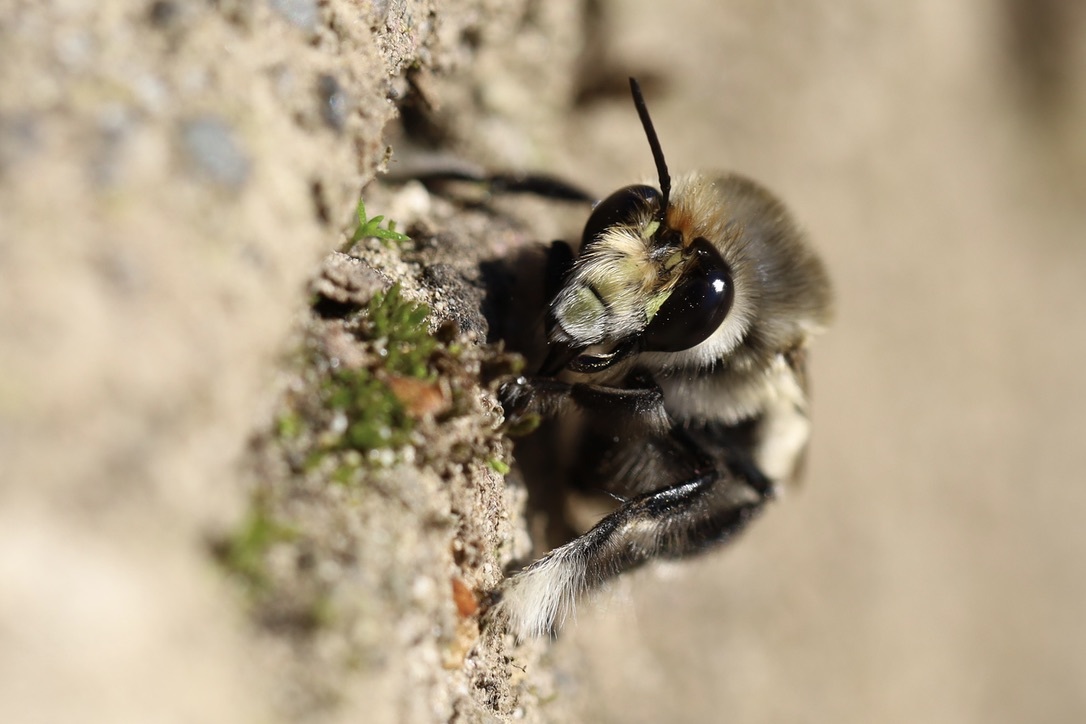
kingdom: Animalia
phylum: Arthropoda
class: Insecta
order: Hymenoptera
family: Apidae
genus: Anthophora
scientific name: Anthophora pacifica
